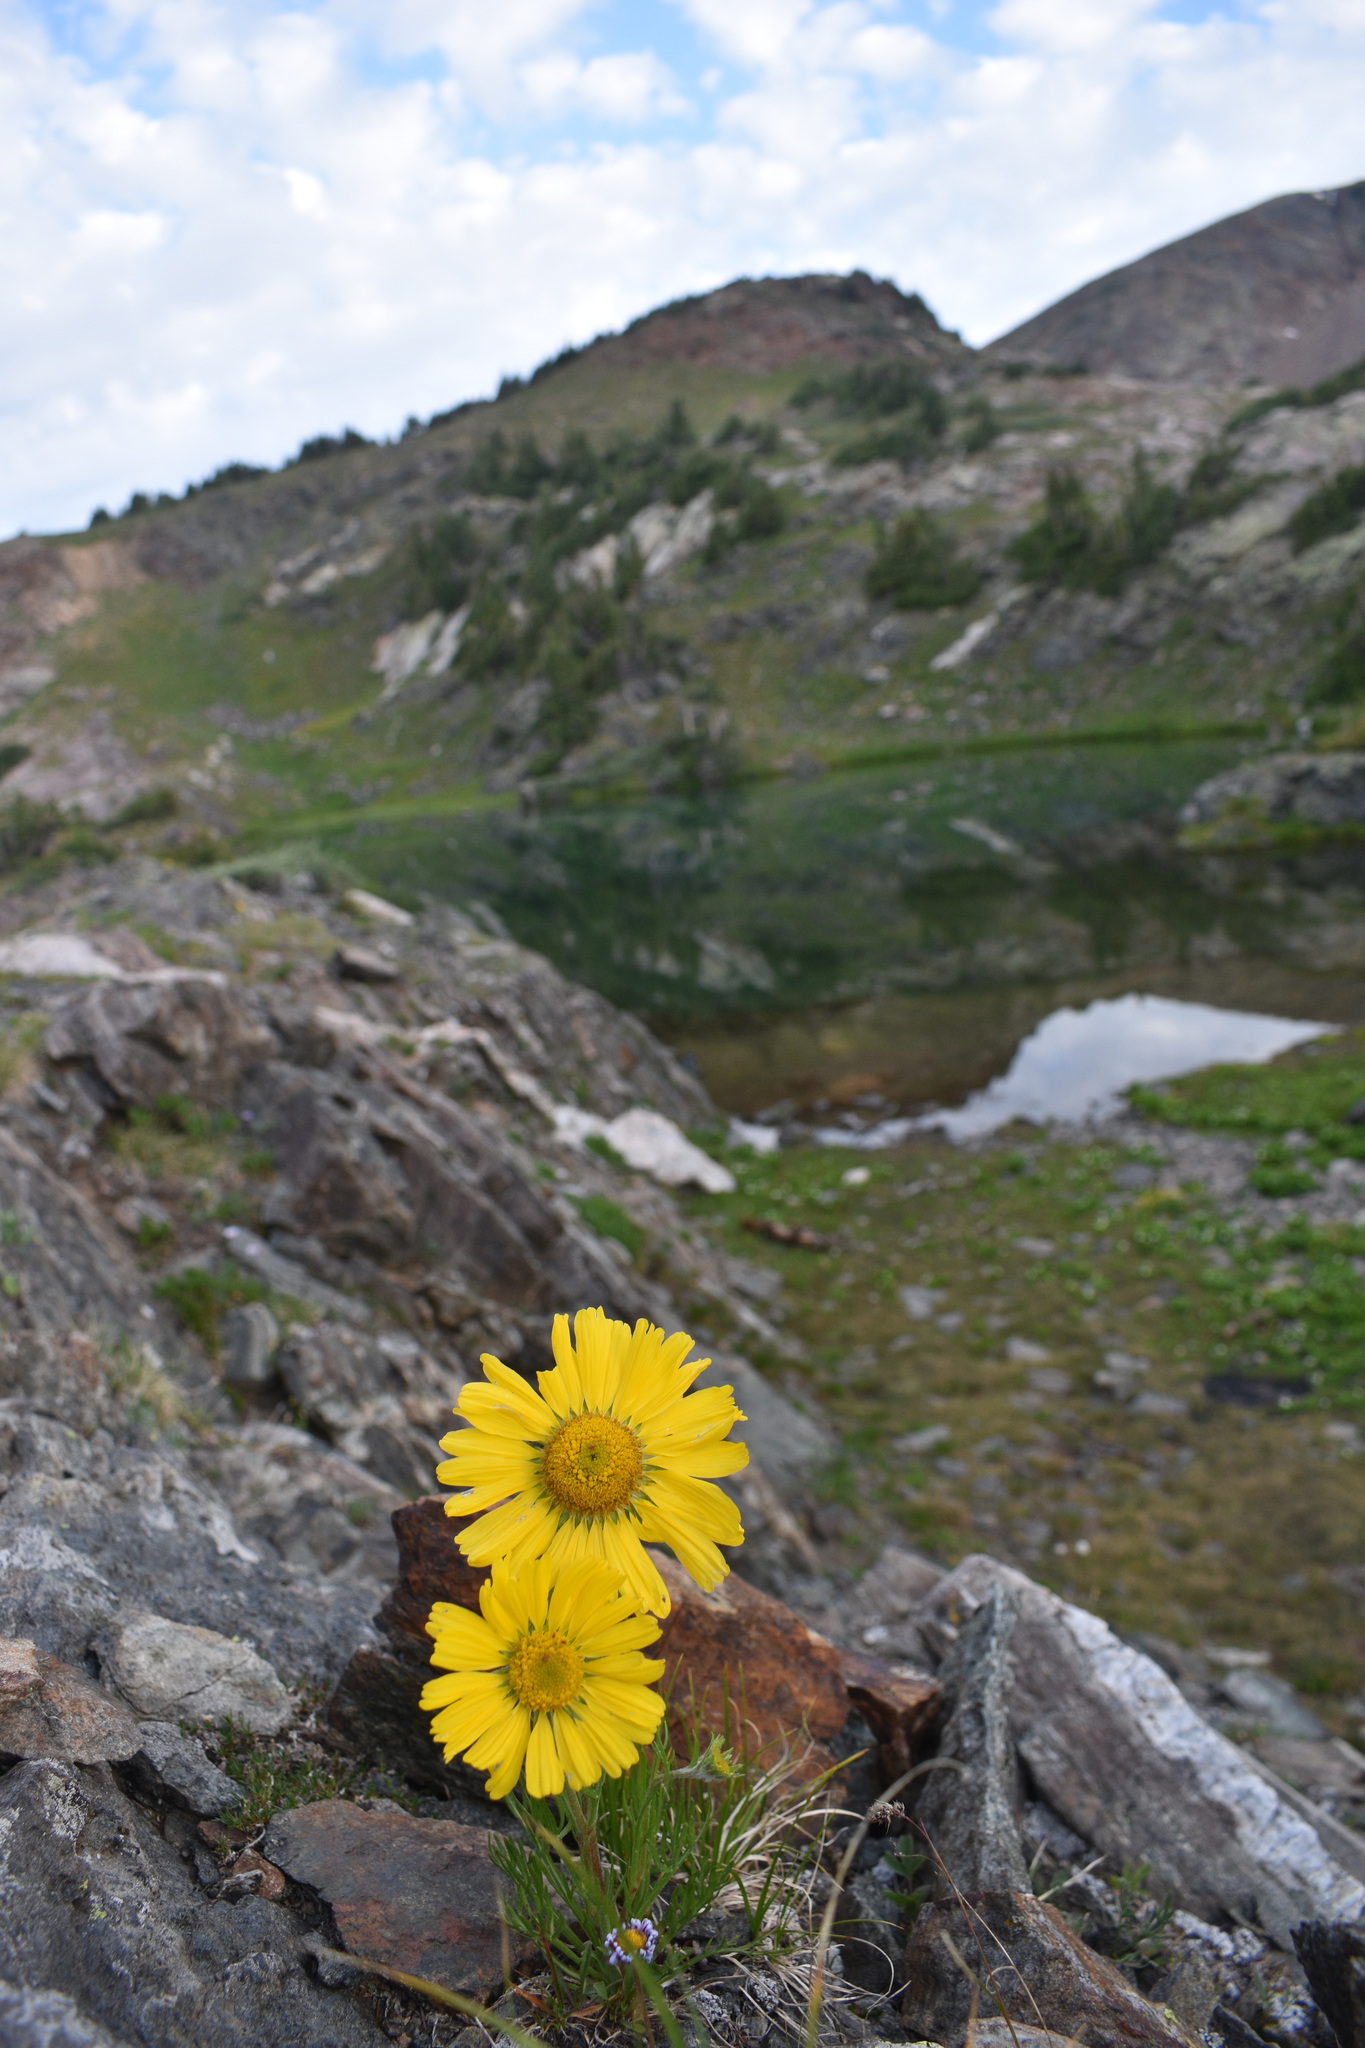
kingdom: Plantae
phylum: Tracheophyta
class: Magnoliopsida
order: Asterales
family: Asteraceae
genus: Hymenoxys
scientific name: Hymenoxys grandiflora
